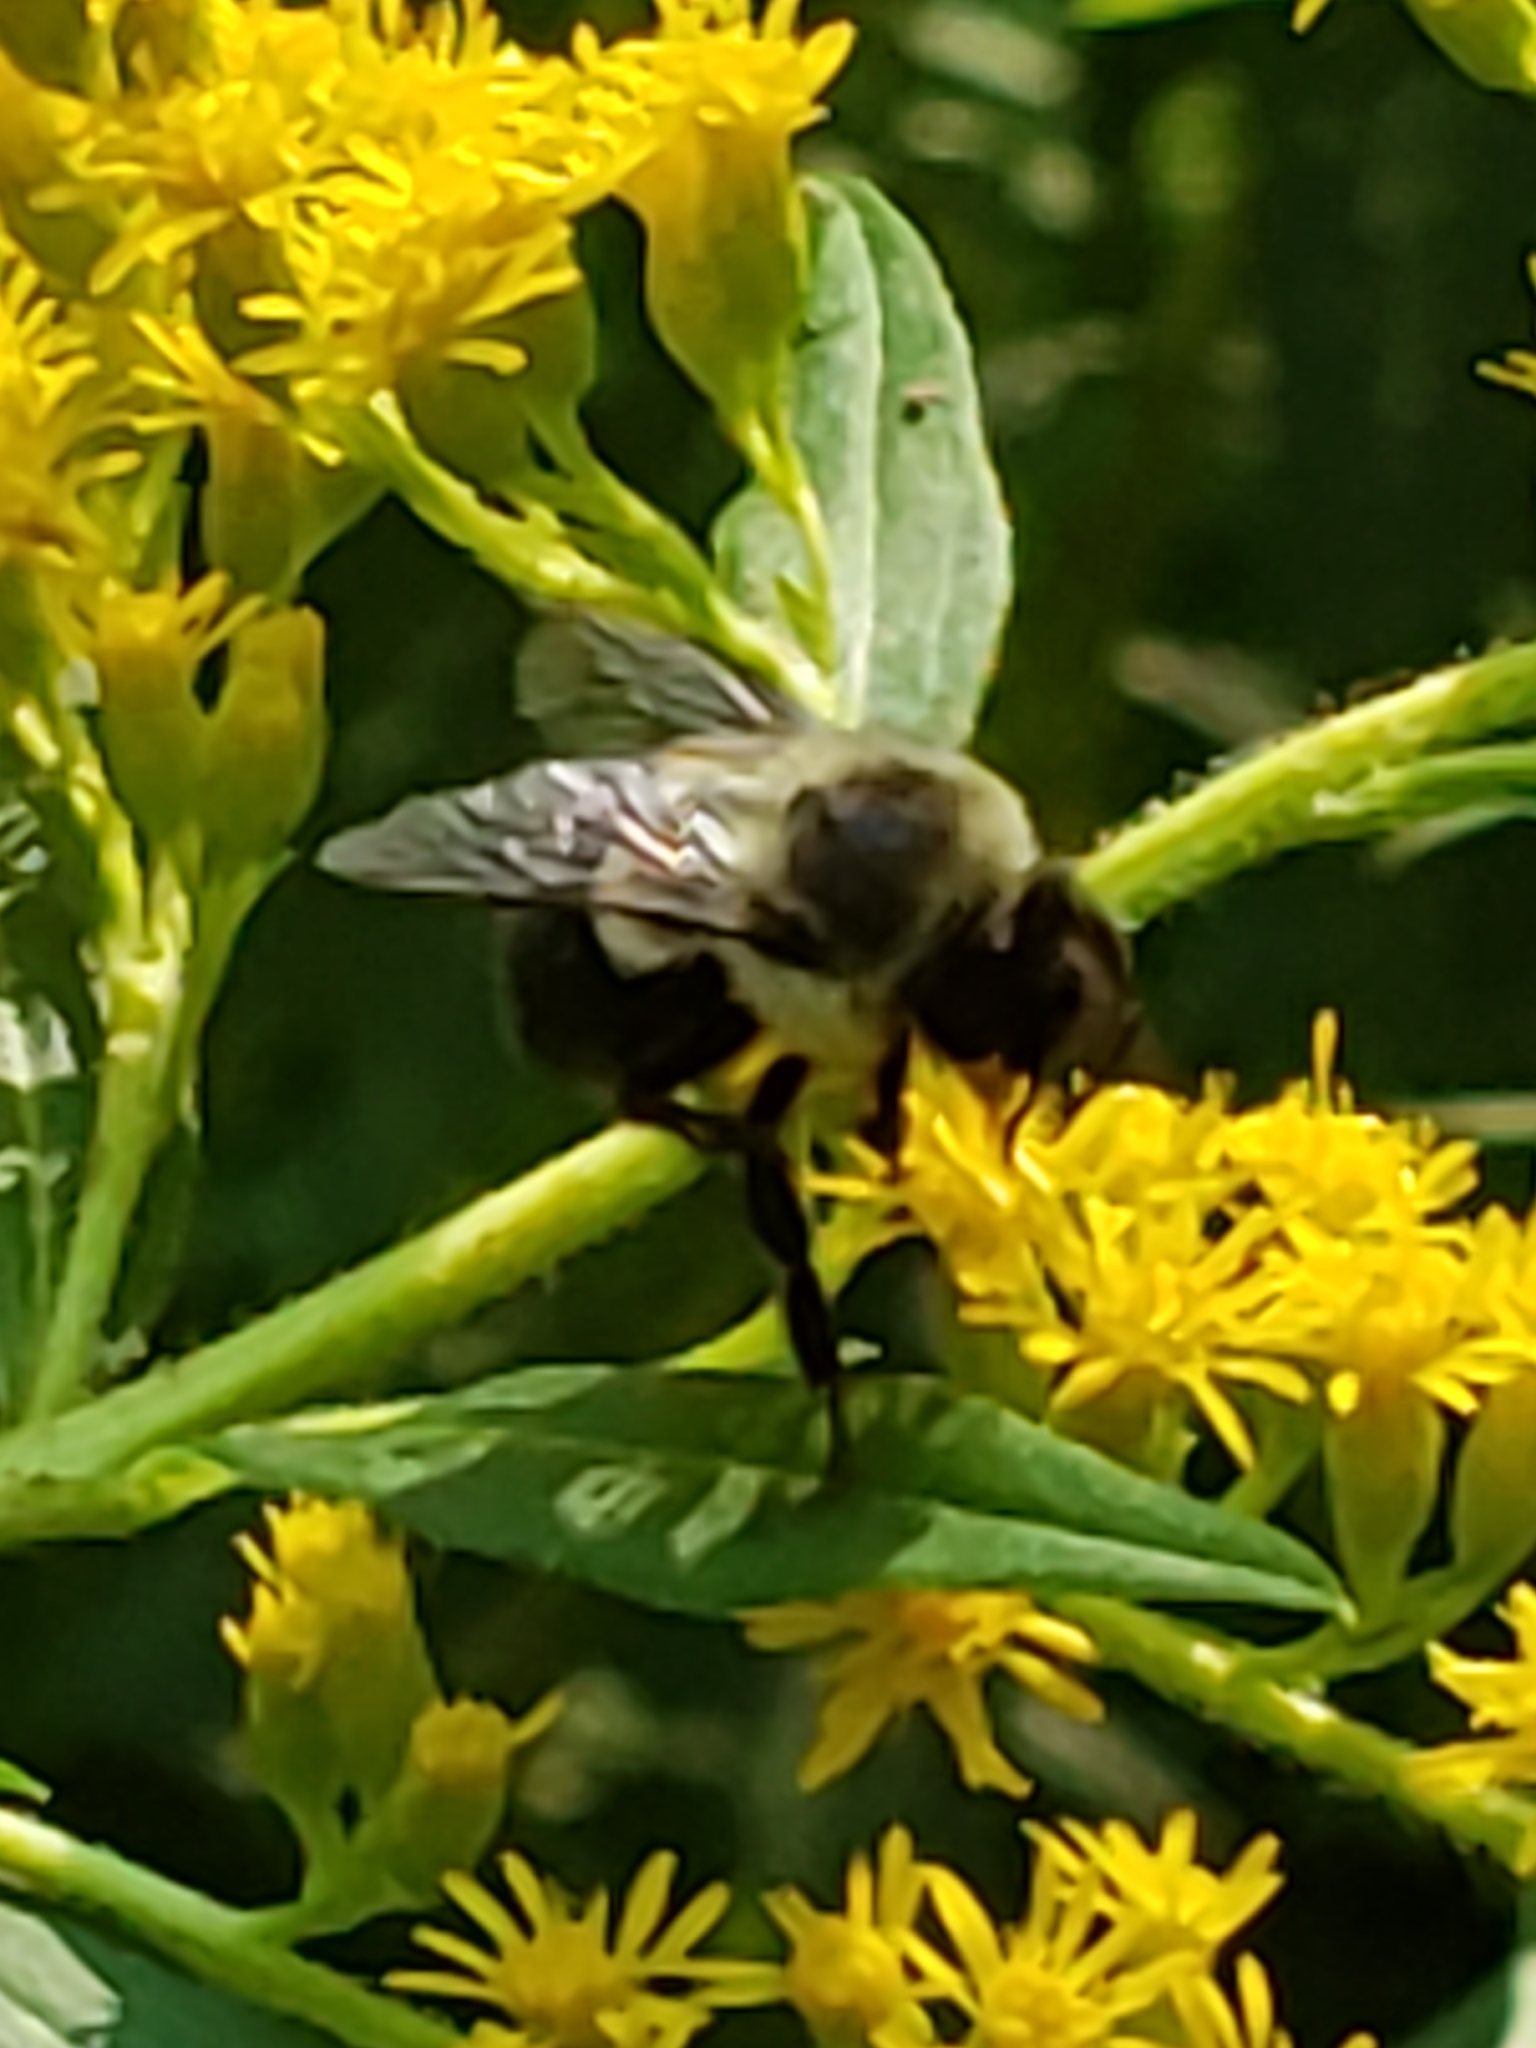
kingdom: Animalia
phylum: Arthropoda
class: Insecta
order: Hymenoptera
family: Apidae
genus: Bombus
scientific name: Bombus impatiens
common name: Common eastern bumble bee
